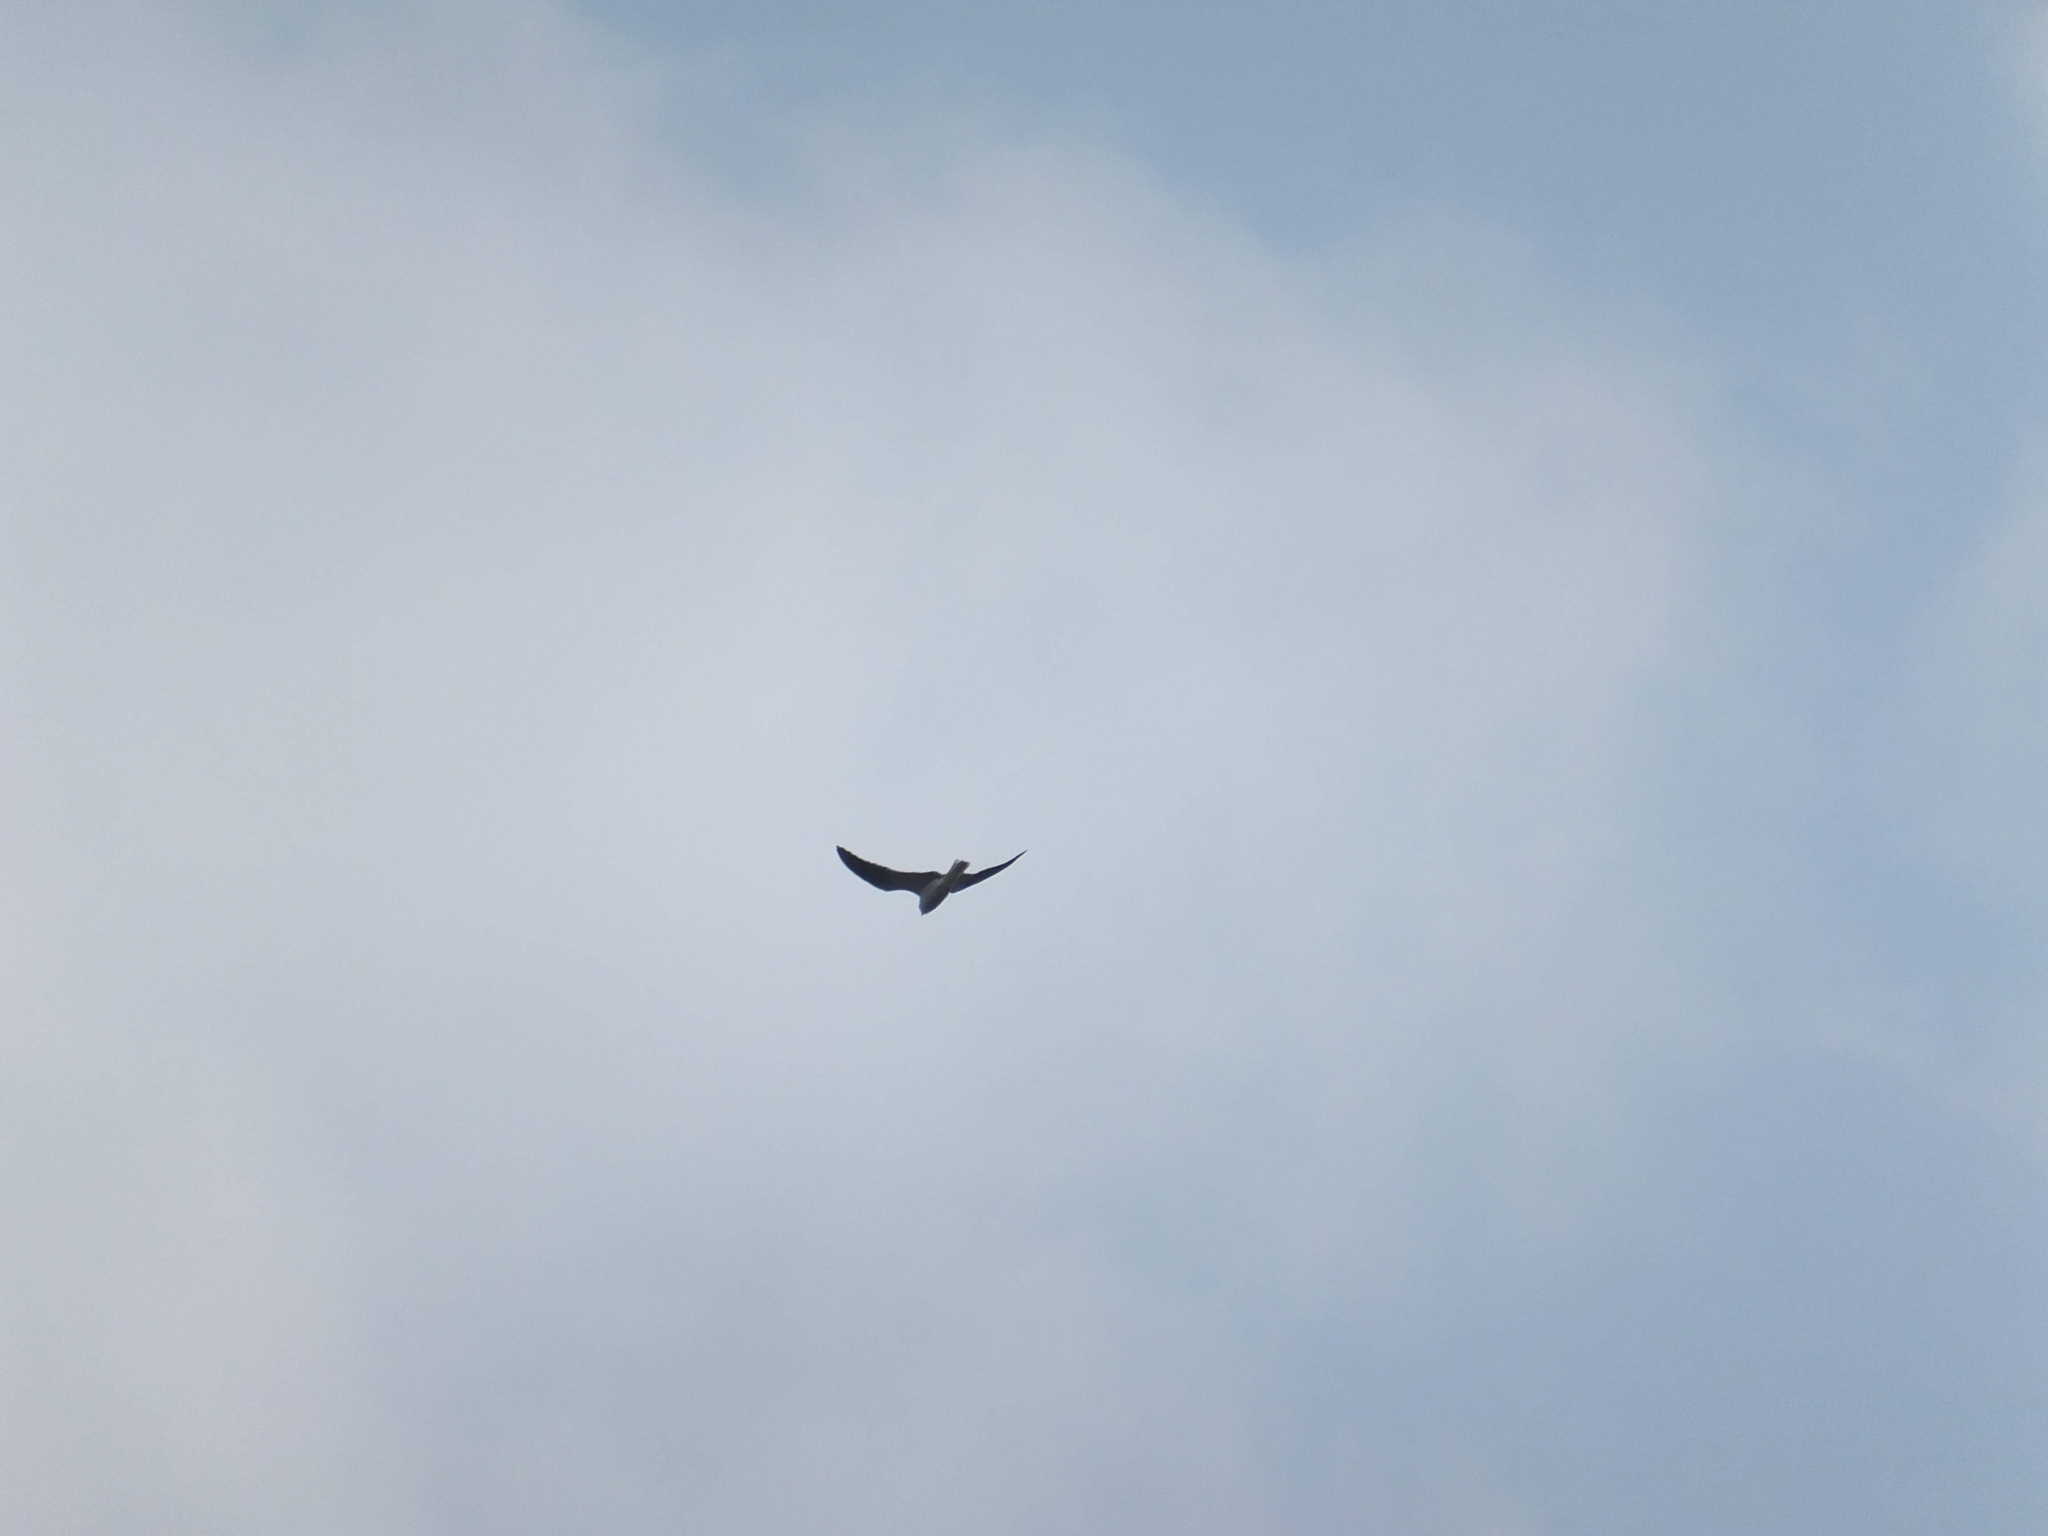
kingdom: Animalia
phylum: Chordata
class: Aves
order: Accipitriformes
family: Accipitridae
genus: Elanus
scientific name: Elanus leucurus
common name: White-tailed kite
